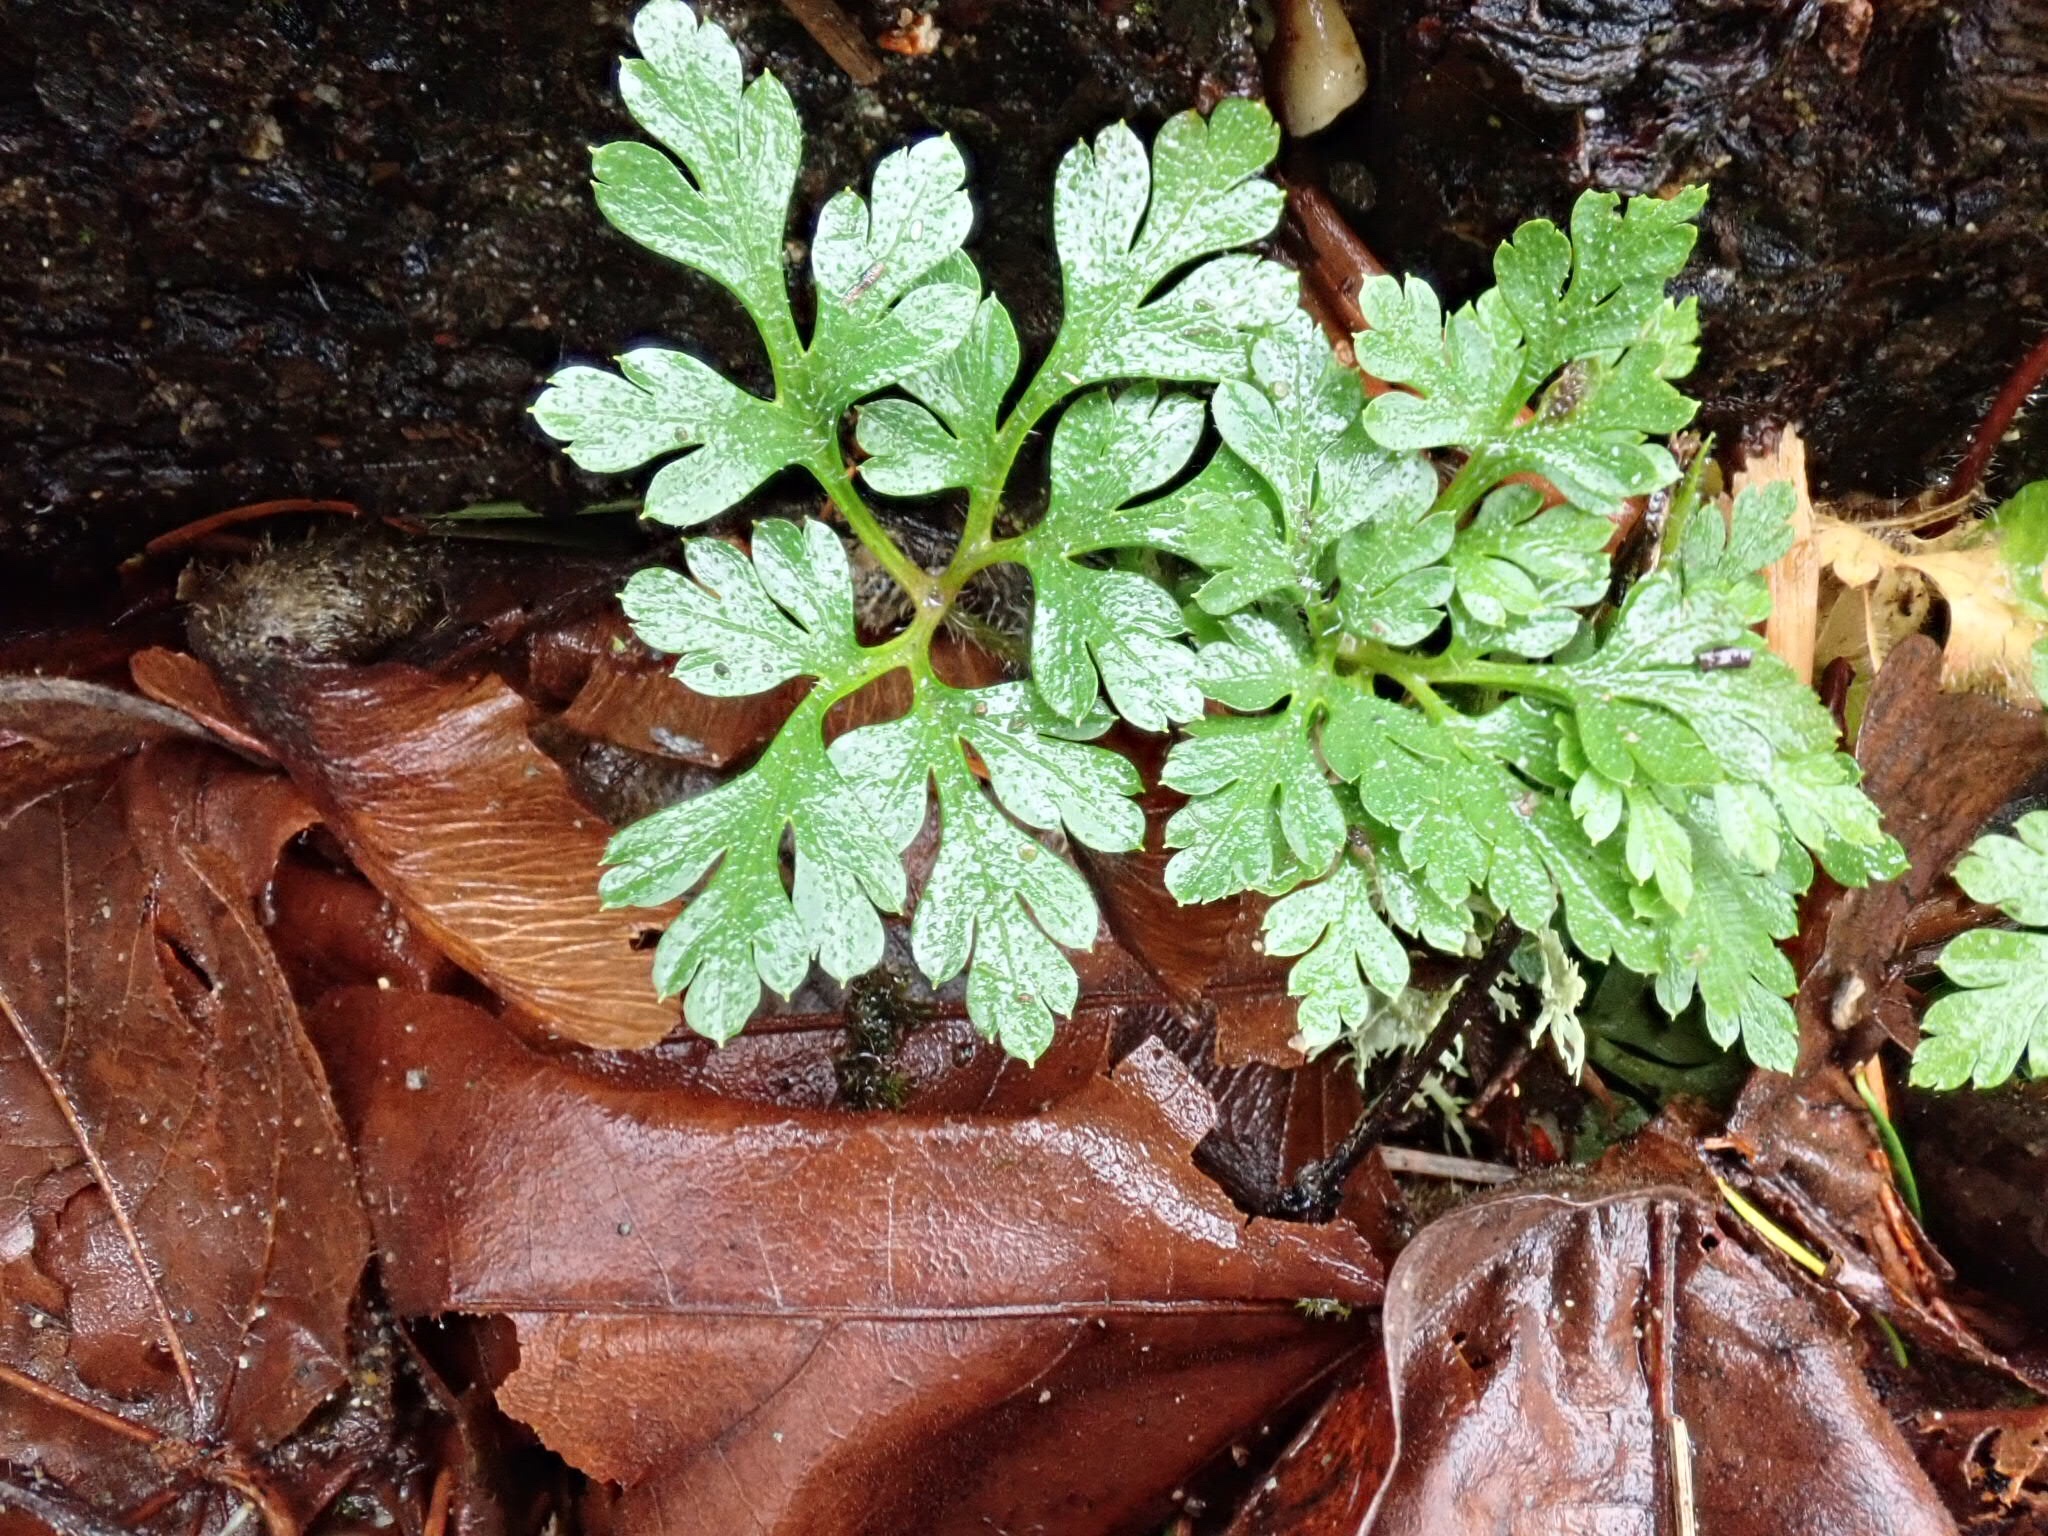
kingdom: Plantae
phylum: Tracheophyta
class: Magnoliopsida
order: Geraniales
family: Geraniaceae
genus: Geranium
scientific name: Geranium robertianum
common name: Herb-robert
